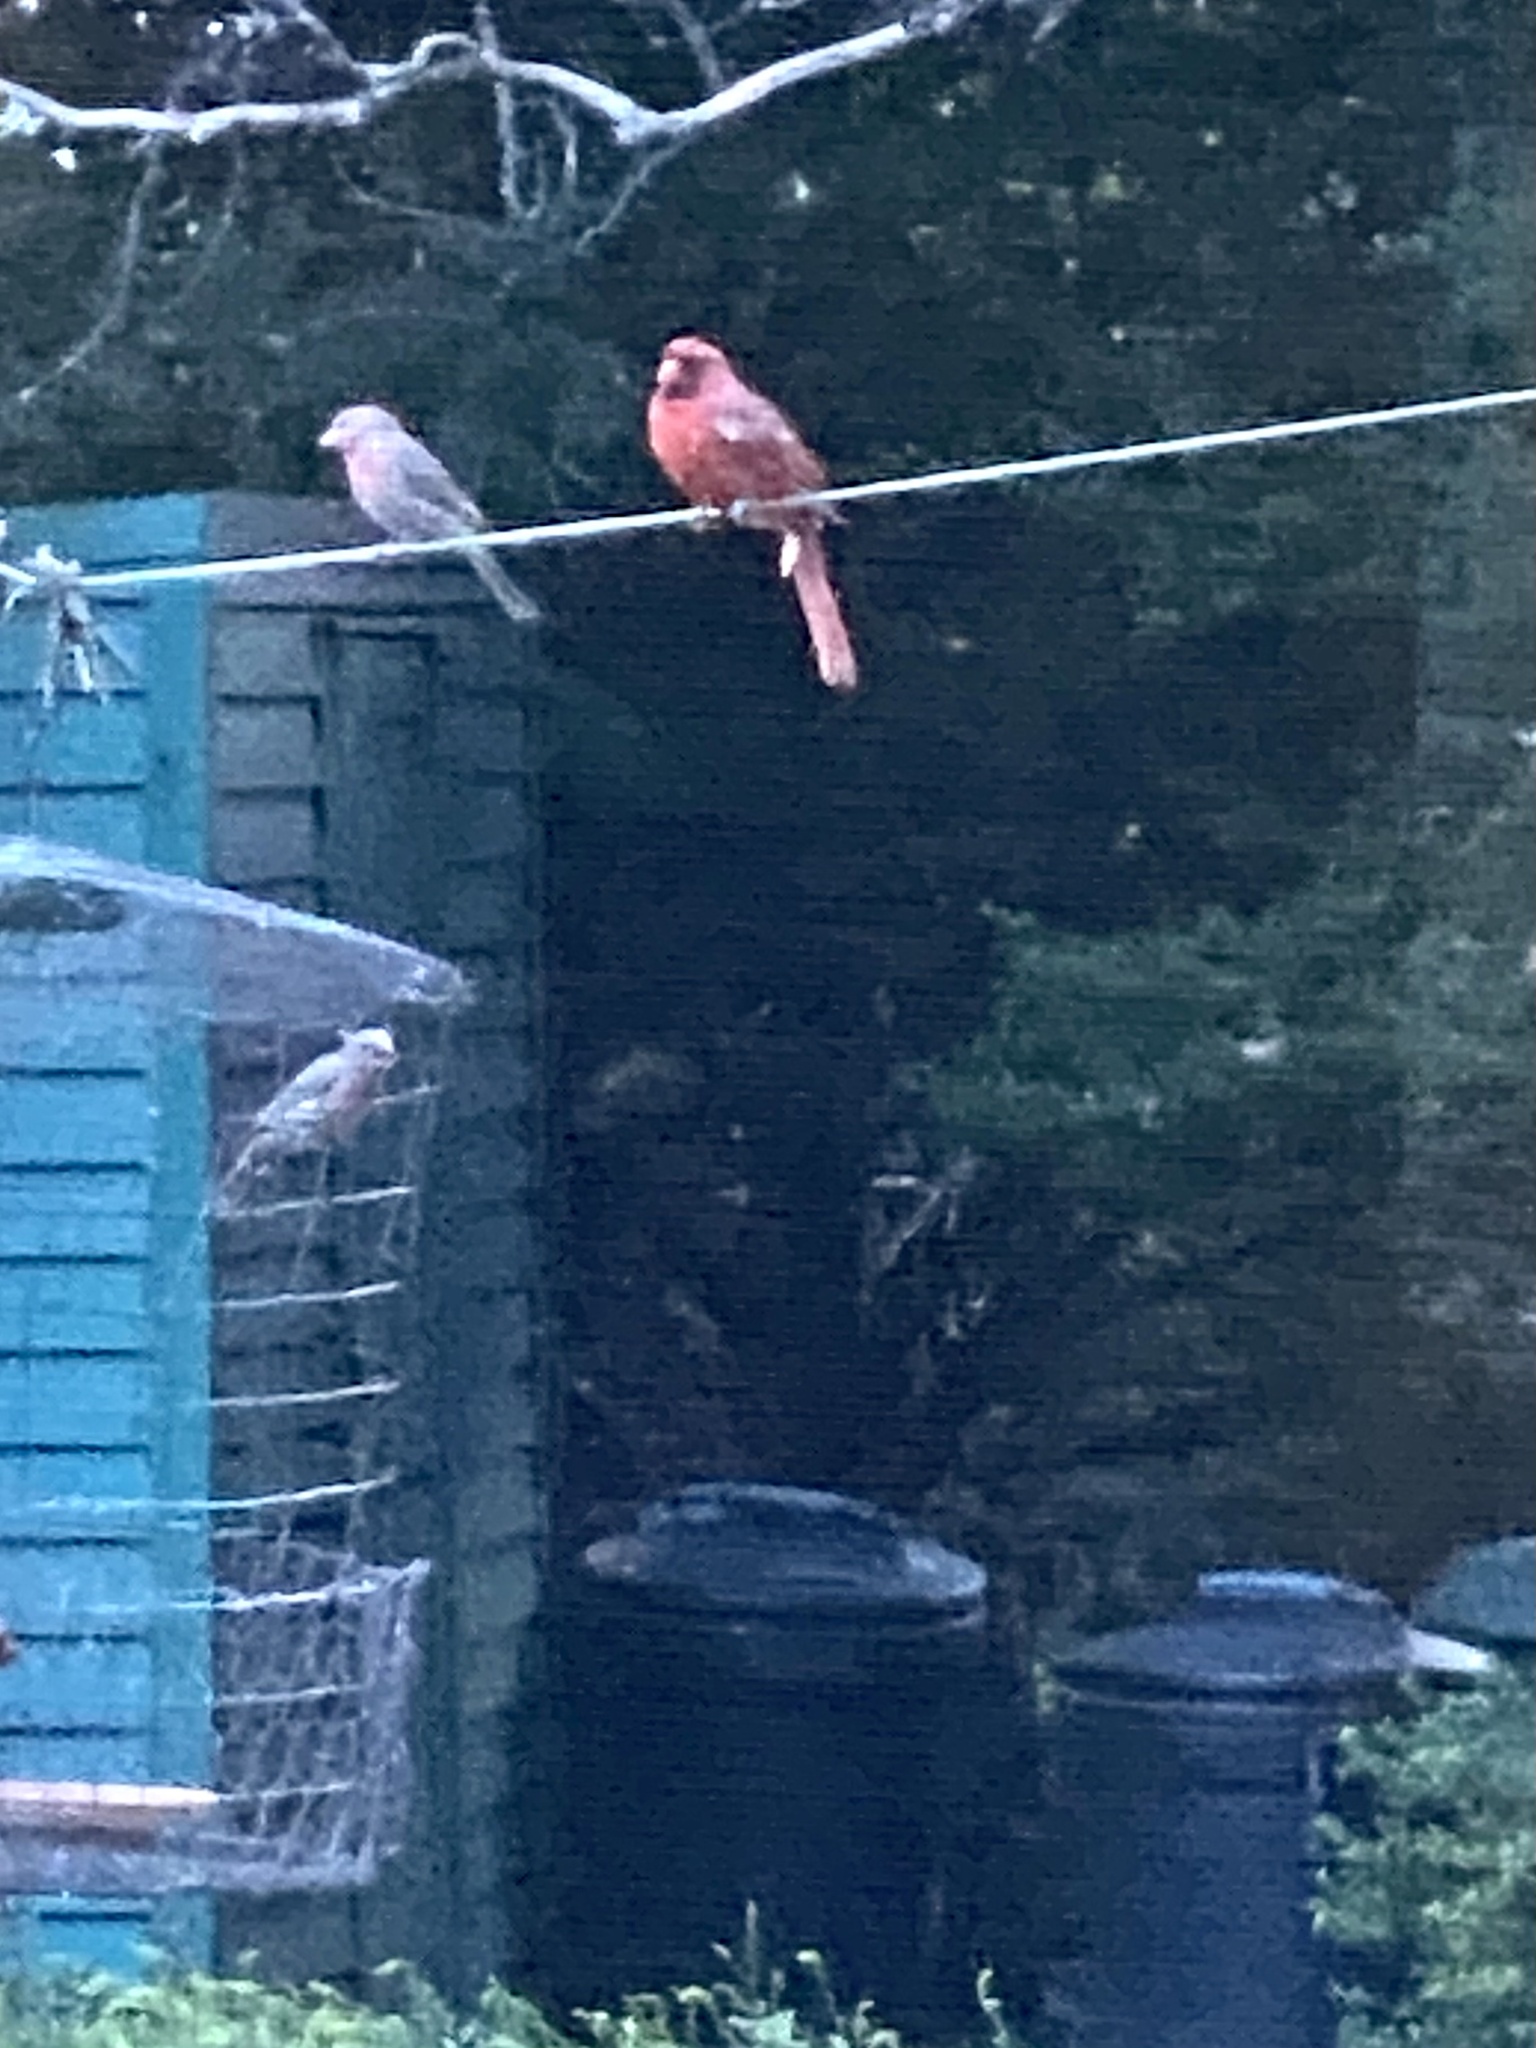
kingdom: Animalia
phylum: Chordata
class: Aves
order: Passeriformes
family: Cardinalidae
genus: Cardinalis
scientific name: Cardinalis cardinalis
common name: Northern cardinal
